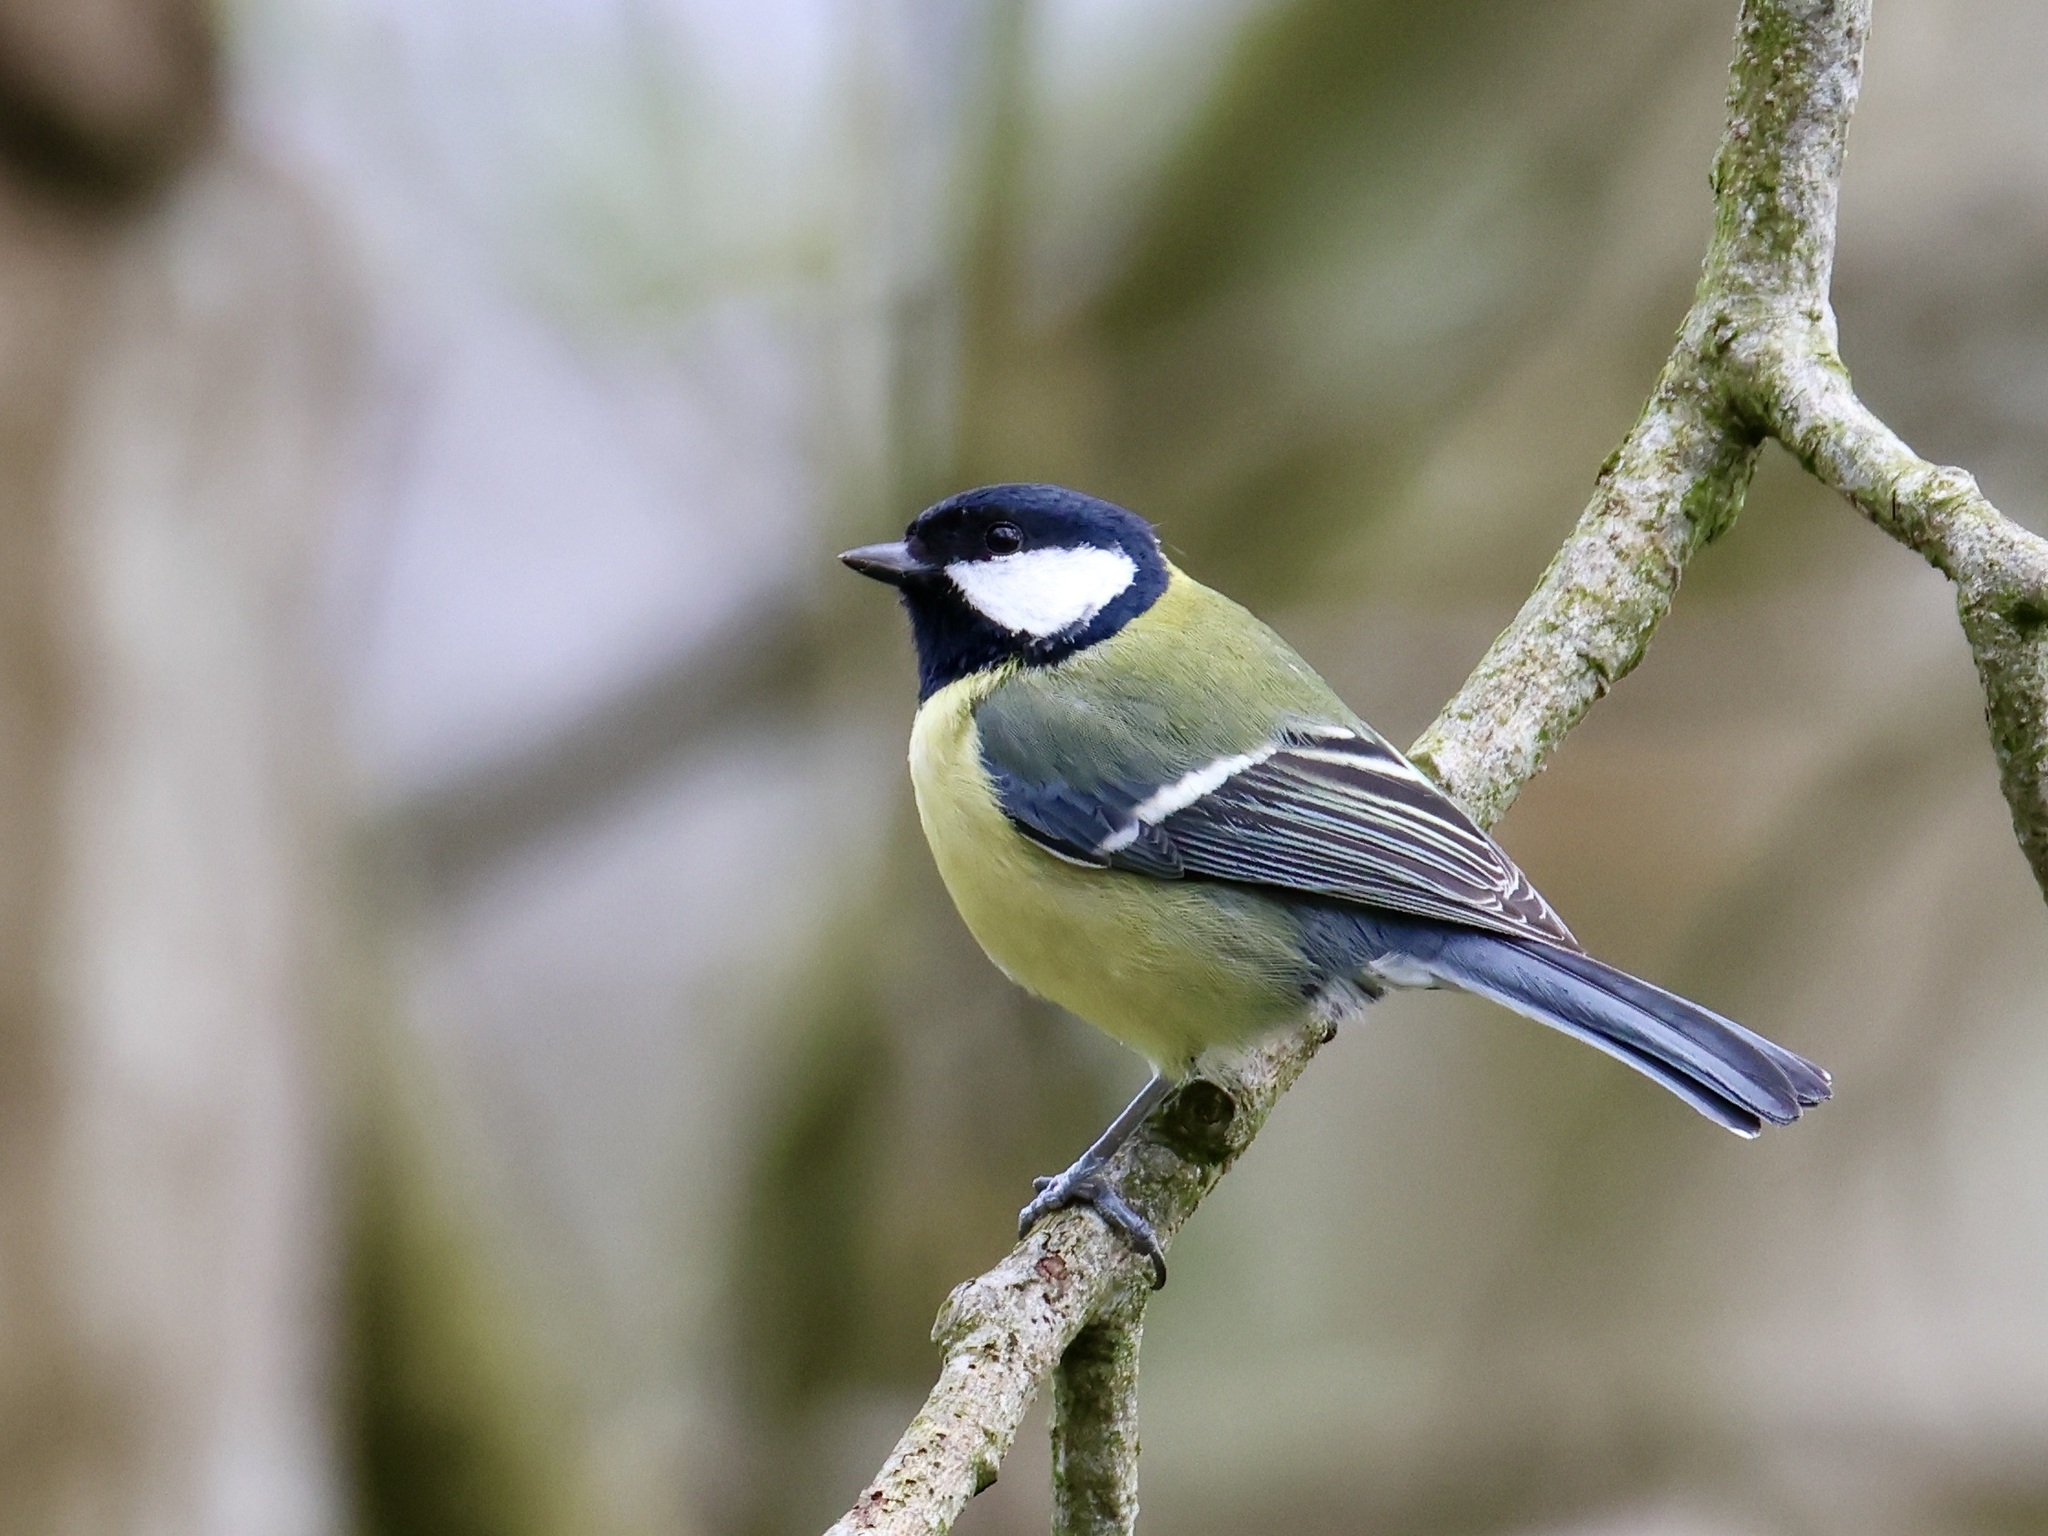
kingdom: Animalia
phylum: Chordata
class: Aves
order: Passeriformes
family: Paridae
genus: Parus
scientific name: Parus major
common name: Great tit
